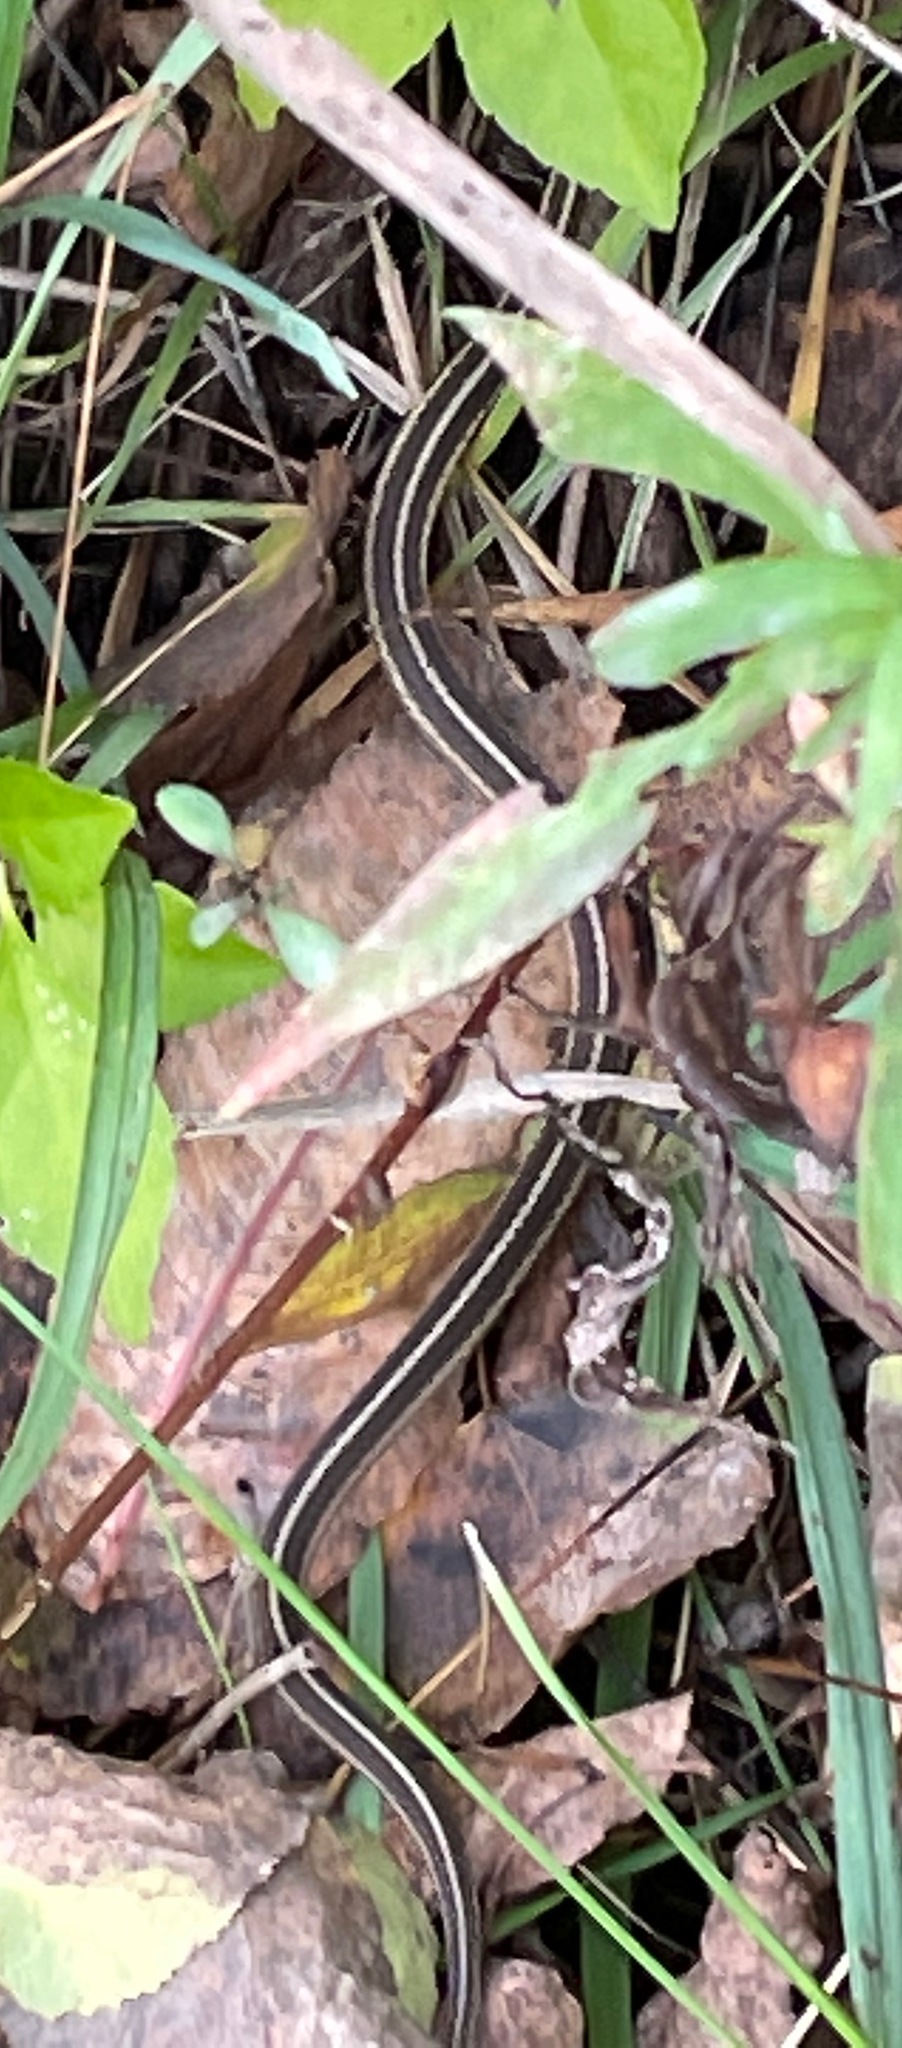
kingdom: Animalia
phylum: Chordata
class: Squamata
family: Colubridae
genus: Thamnophis
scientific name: Thamnophis saurita
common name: Eastern ribbonsnake
